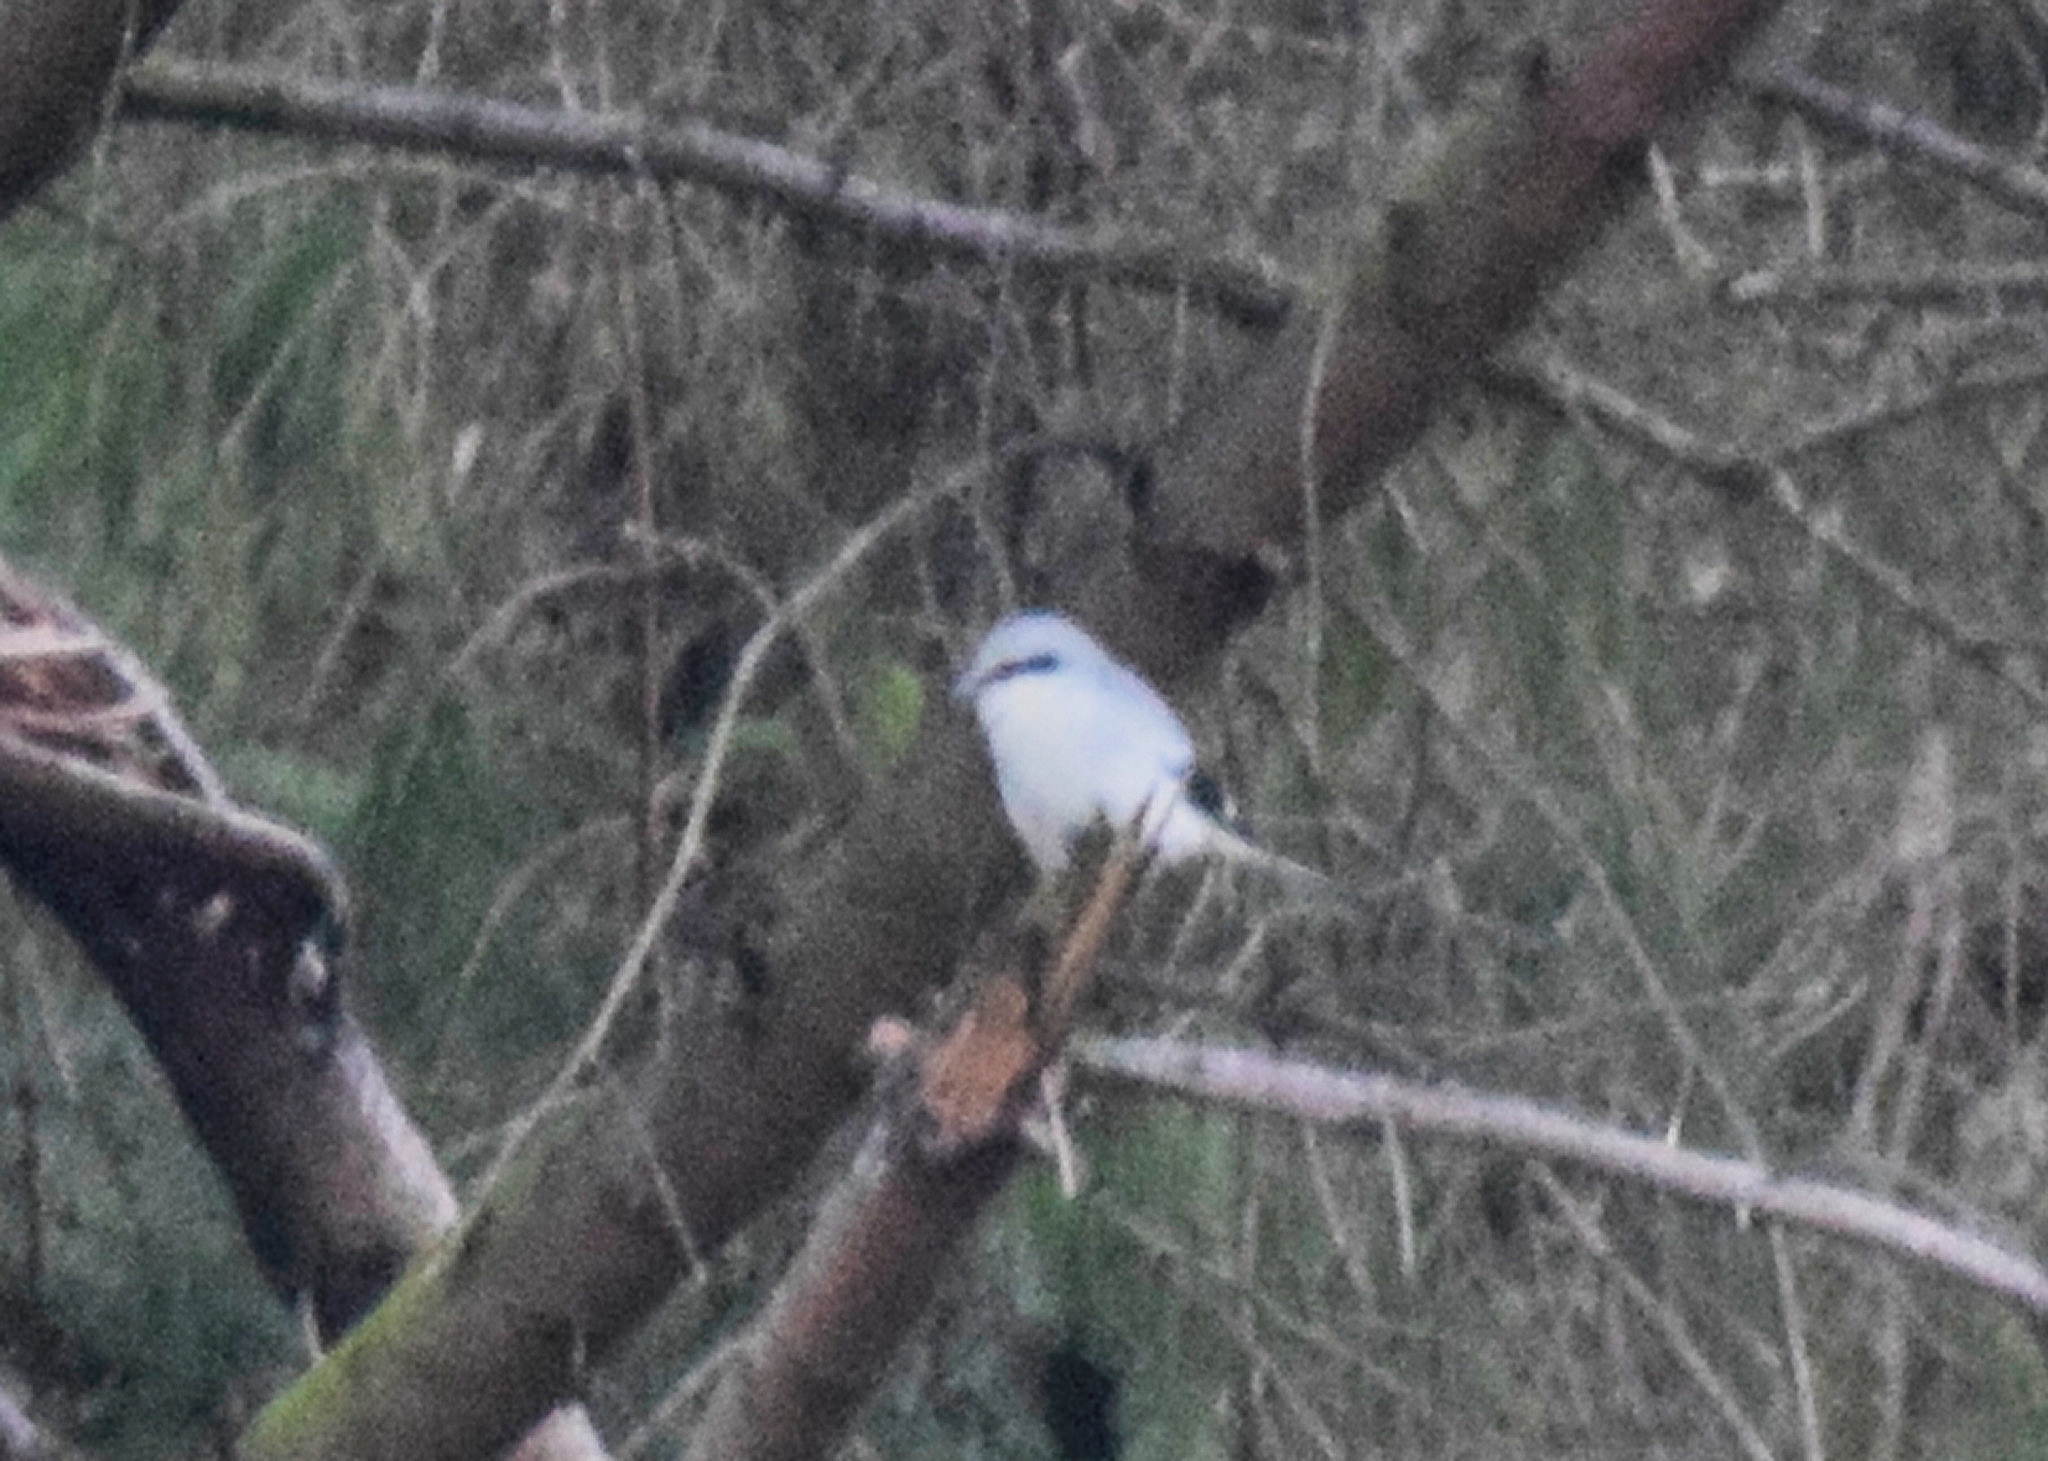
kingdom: Animalia
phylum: Chordata
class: Aves
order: Passeriformes
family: Laniidae
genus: Lanius
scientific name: Lanius excubitor
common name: Great grey shrike
